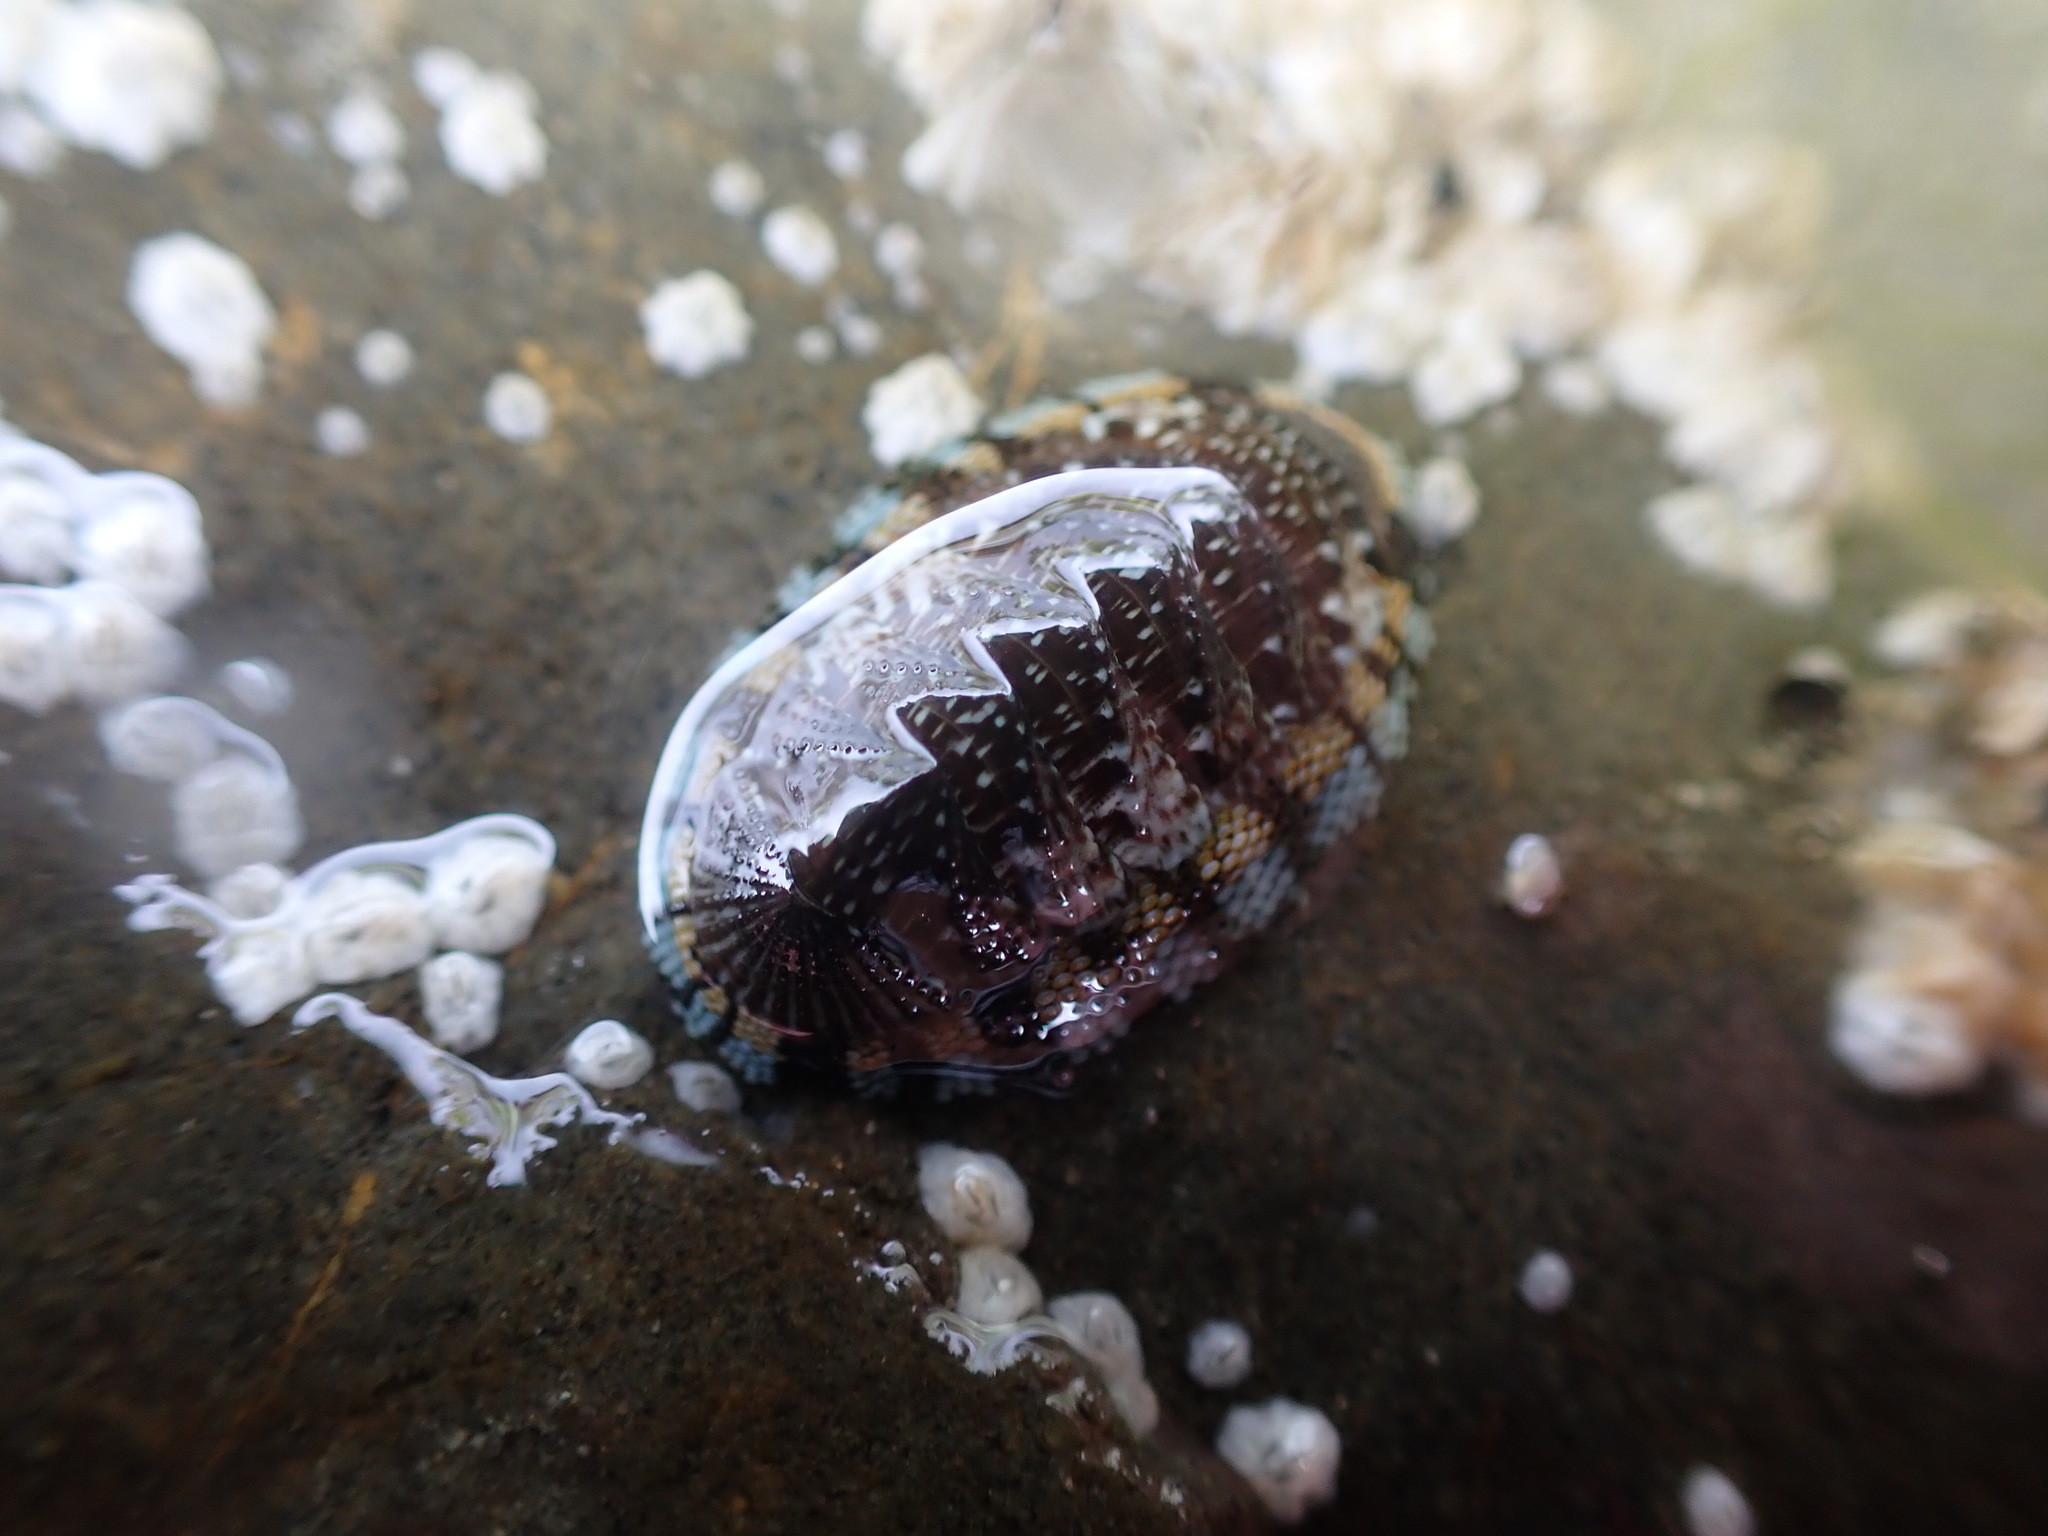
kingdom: Animalia
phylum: Mollusca
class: Polyplacophora
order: Chitonida
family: Chitonidae
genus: Sypharochiton
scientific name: Sypharochiton sinclairi
